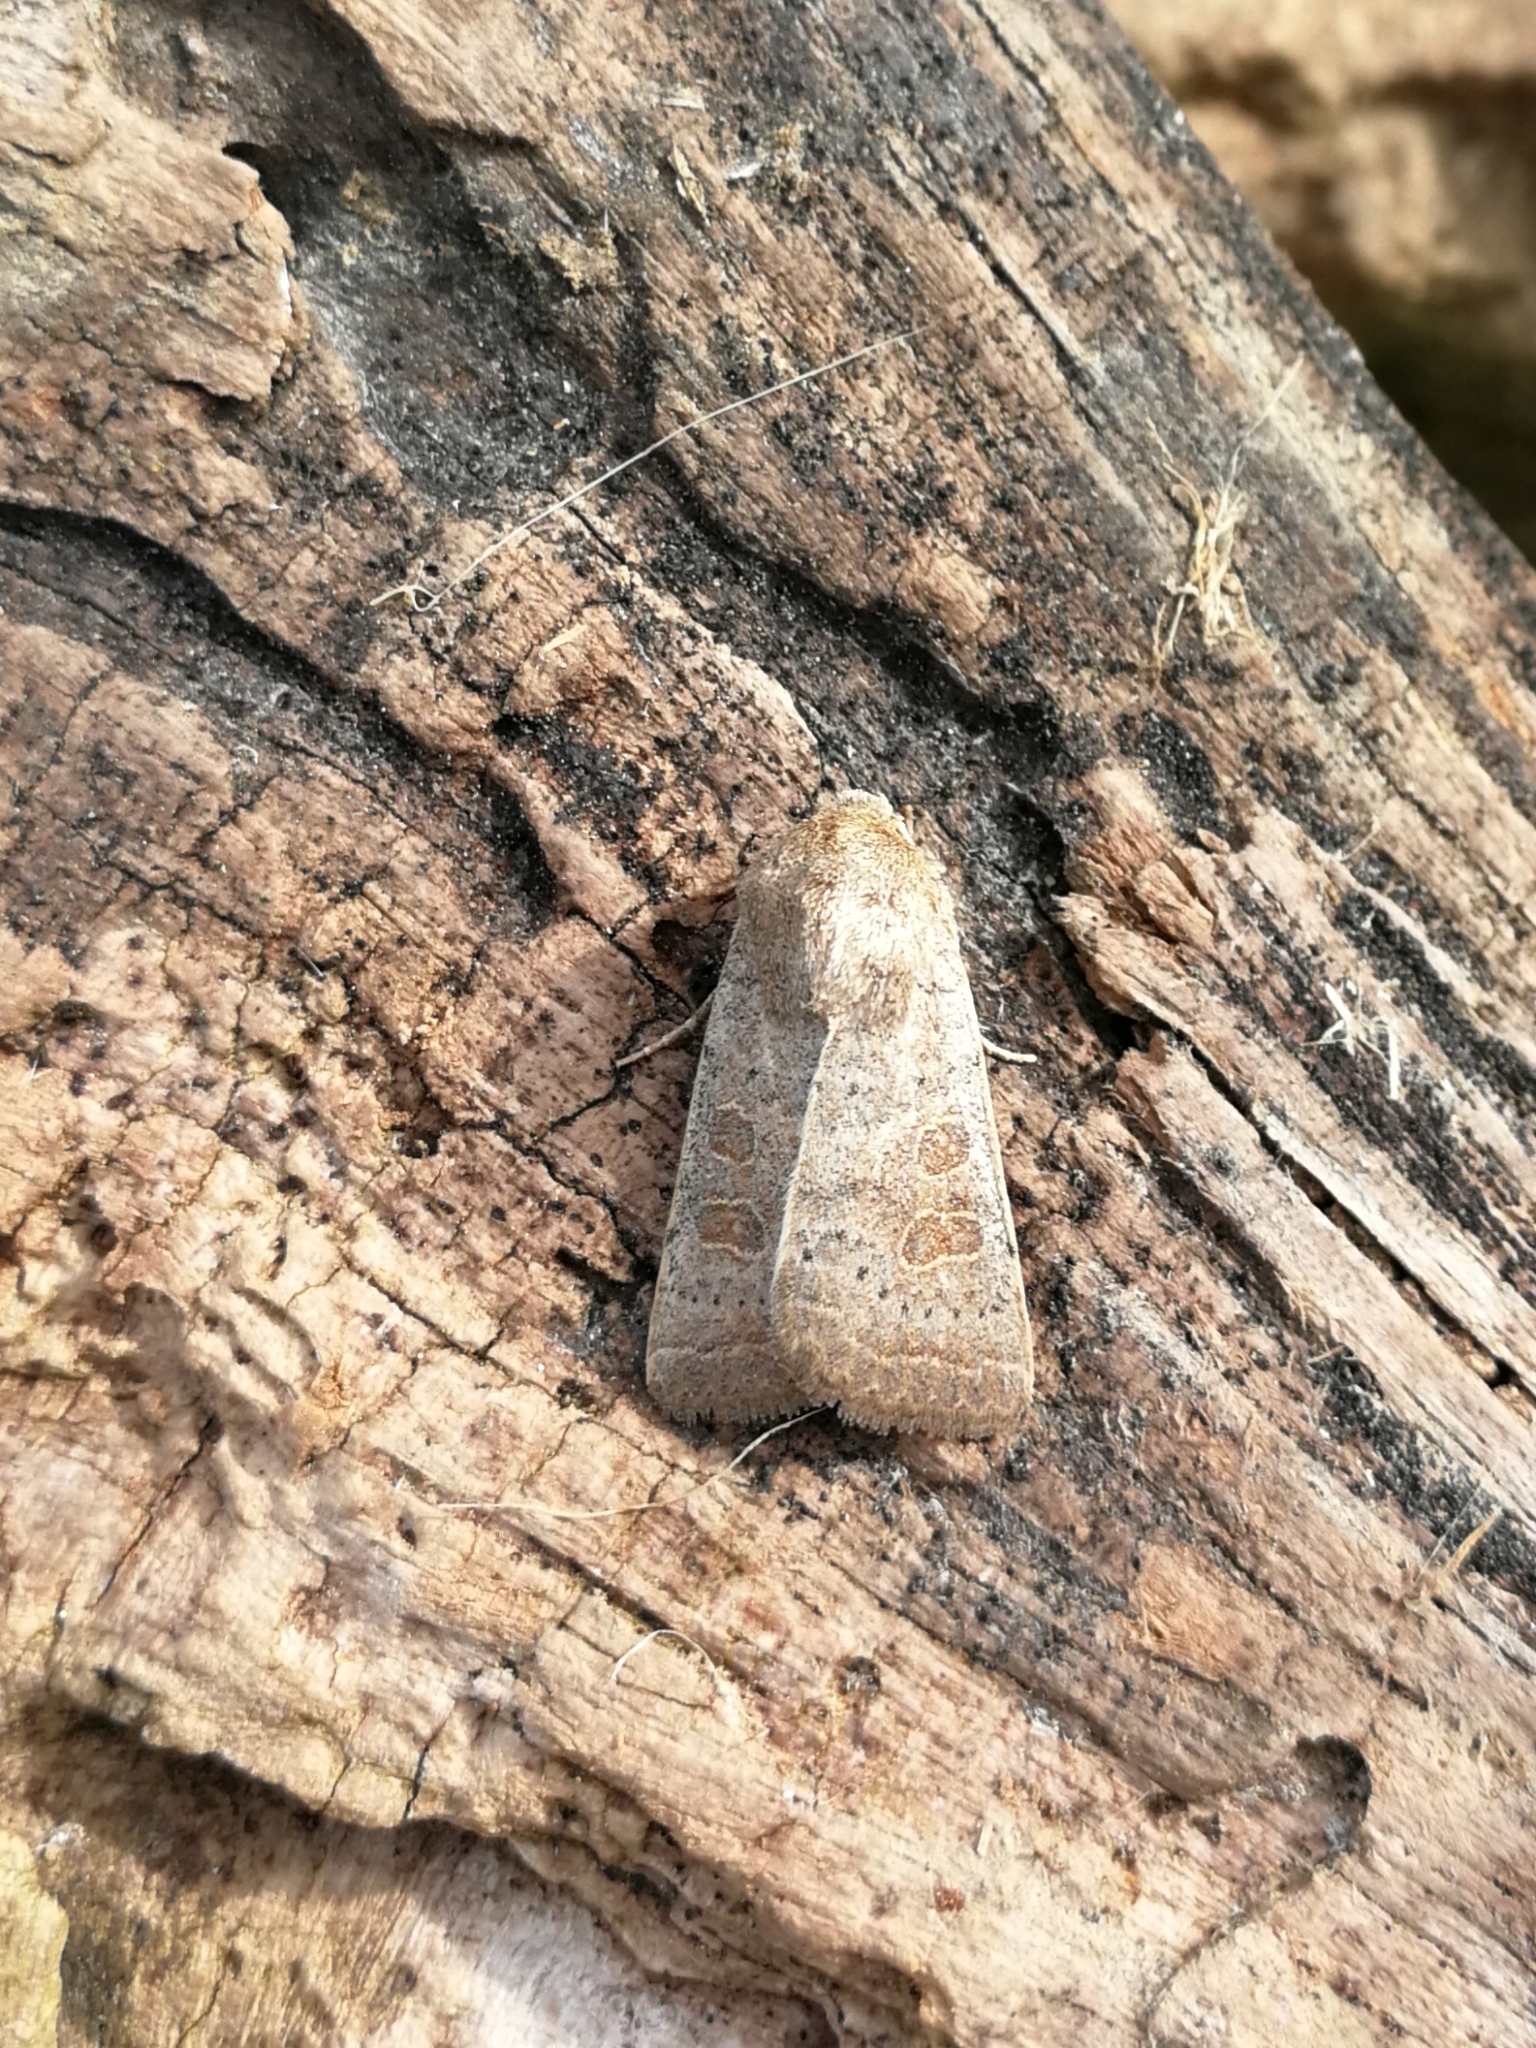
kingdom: Animalia
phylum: Arthropoda
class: Insecta
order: Lepidoptera
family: Noctuidae
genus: Hoplodrina
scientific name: Hoplodrina ambigua
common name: Vine's rustic
